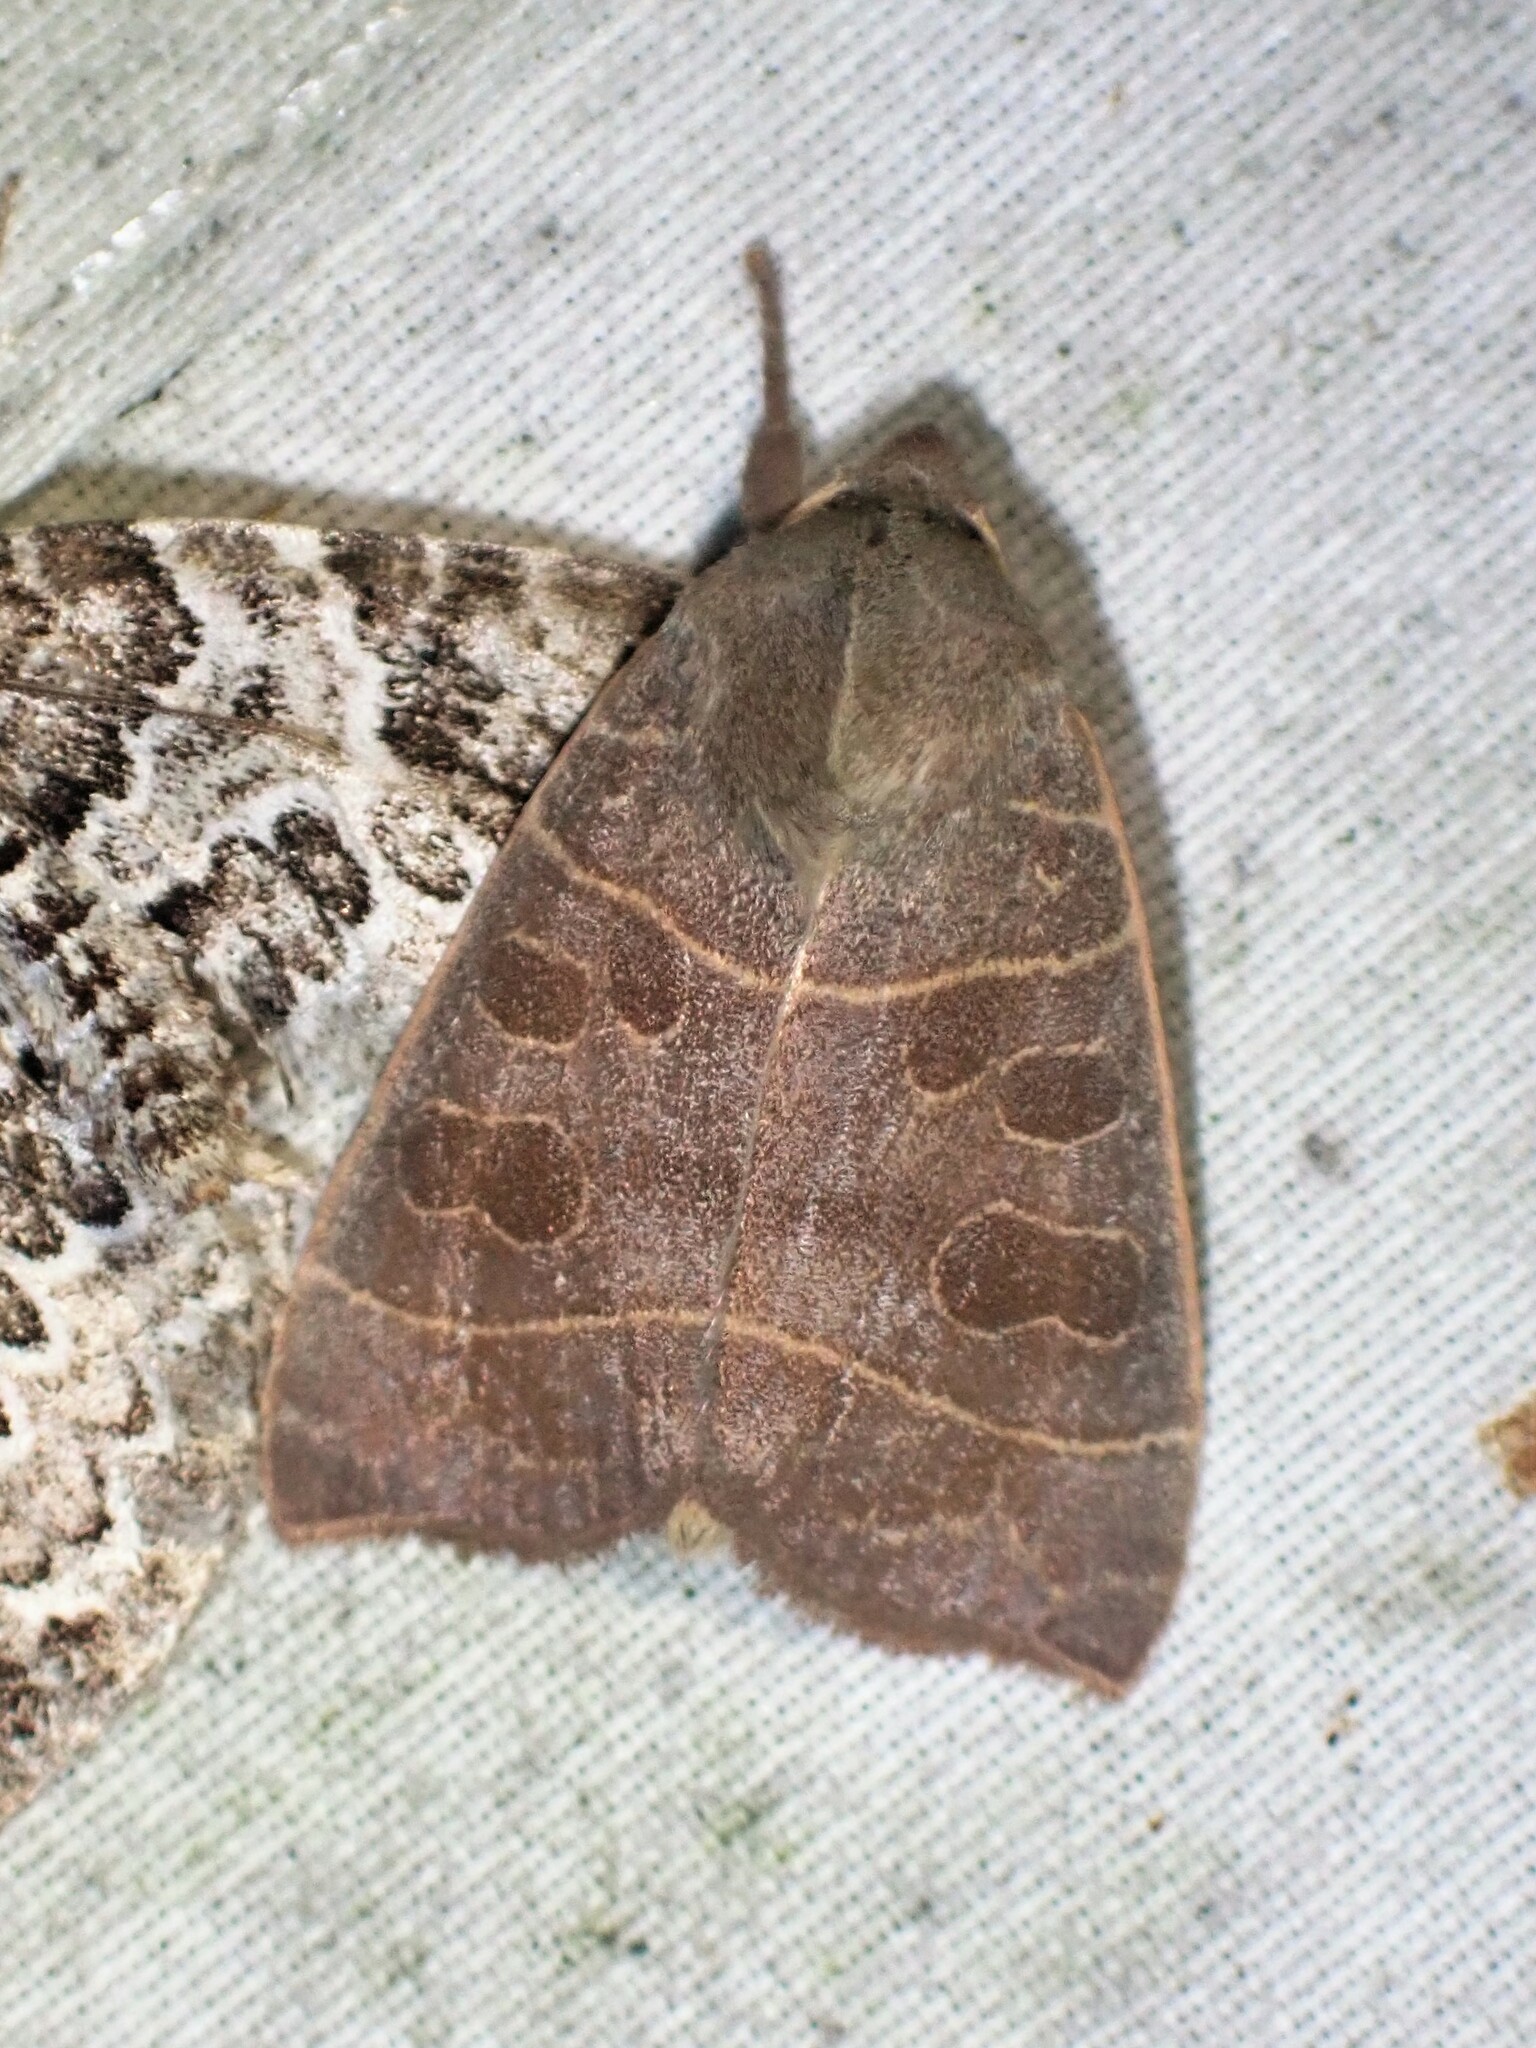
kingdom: Animalia
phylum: Arthropoda
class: Insecta
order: Lepidoptera
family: Noctuidae
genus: Ipimorpha
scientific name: Ipimorpha pleonectusa
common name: Even-lined sallow
